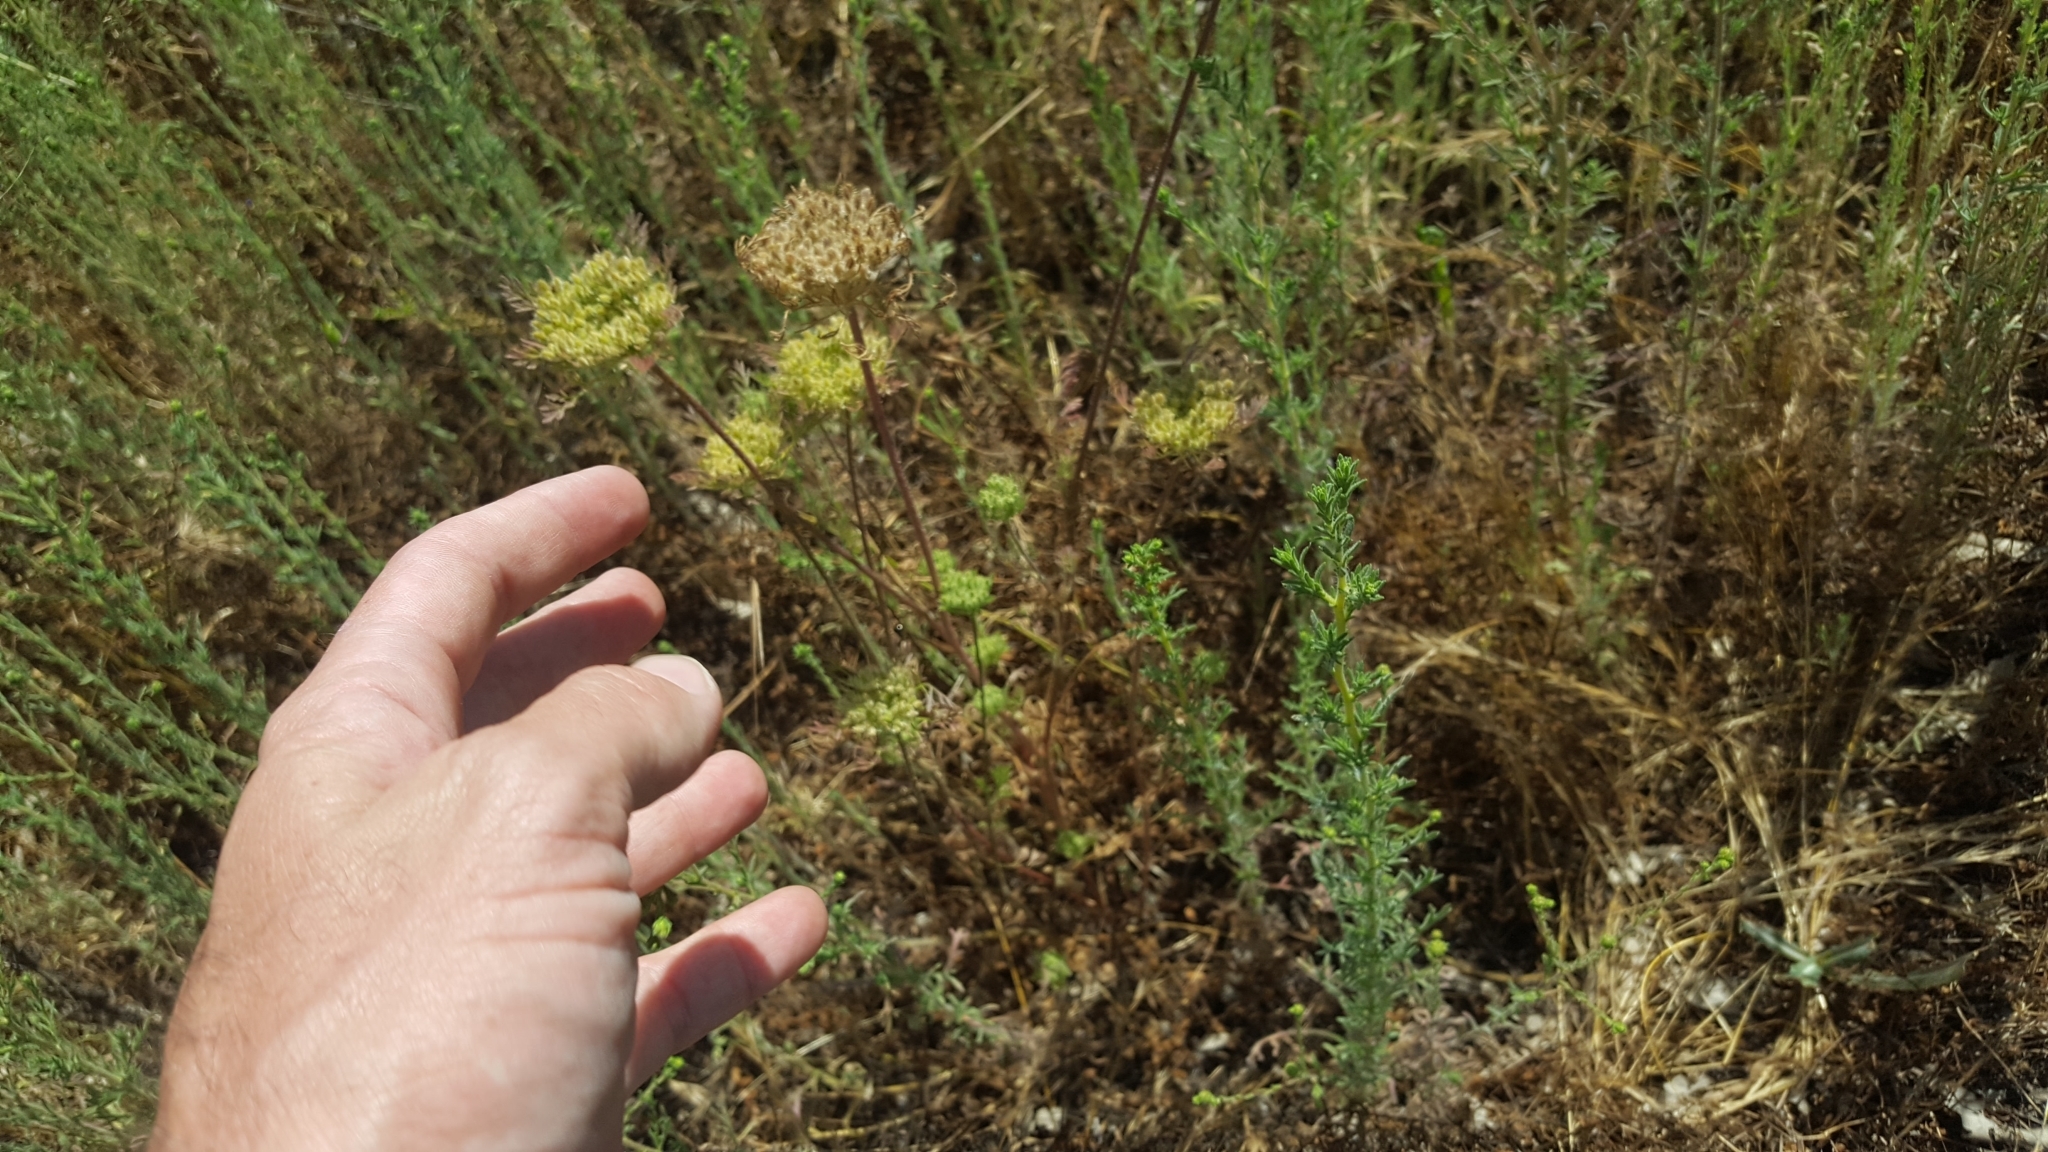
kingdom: Plantae
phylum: Tracheophyta
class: Magnoliopsida
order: Apiales
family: Apiaceae
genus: Daucus
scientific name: Daucus pusillus
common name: Southwest wild carrot
